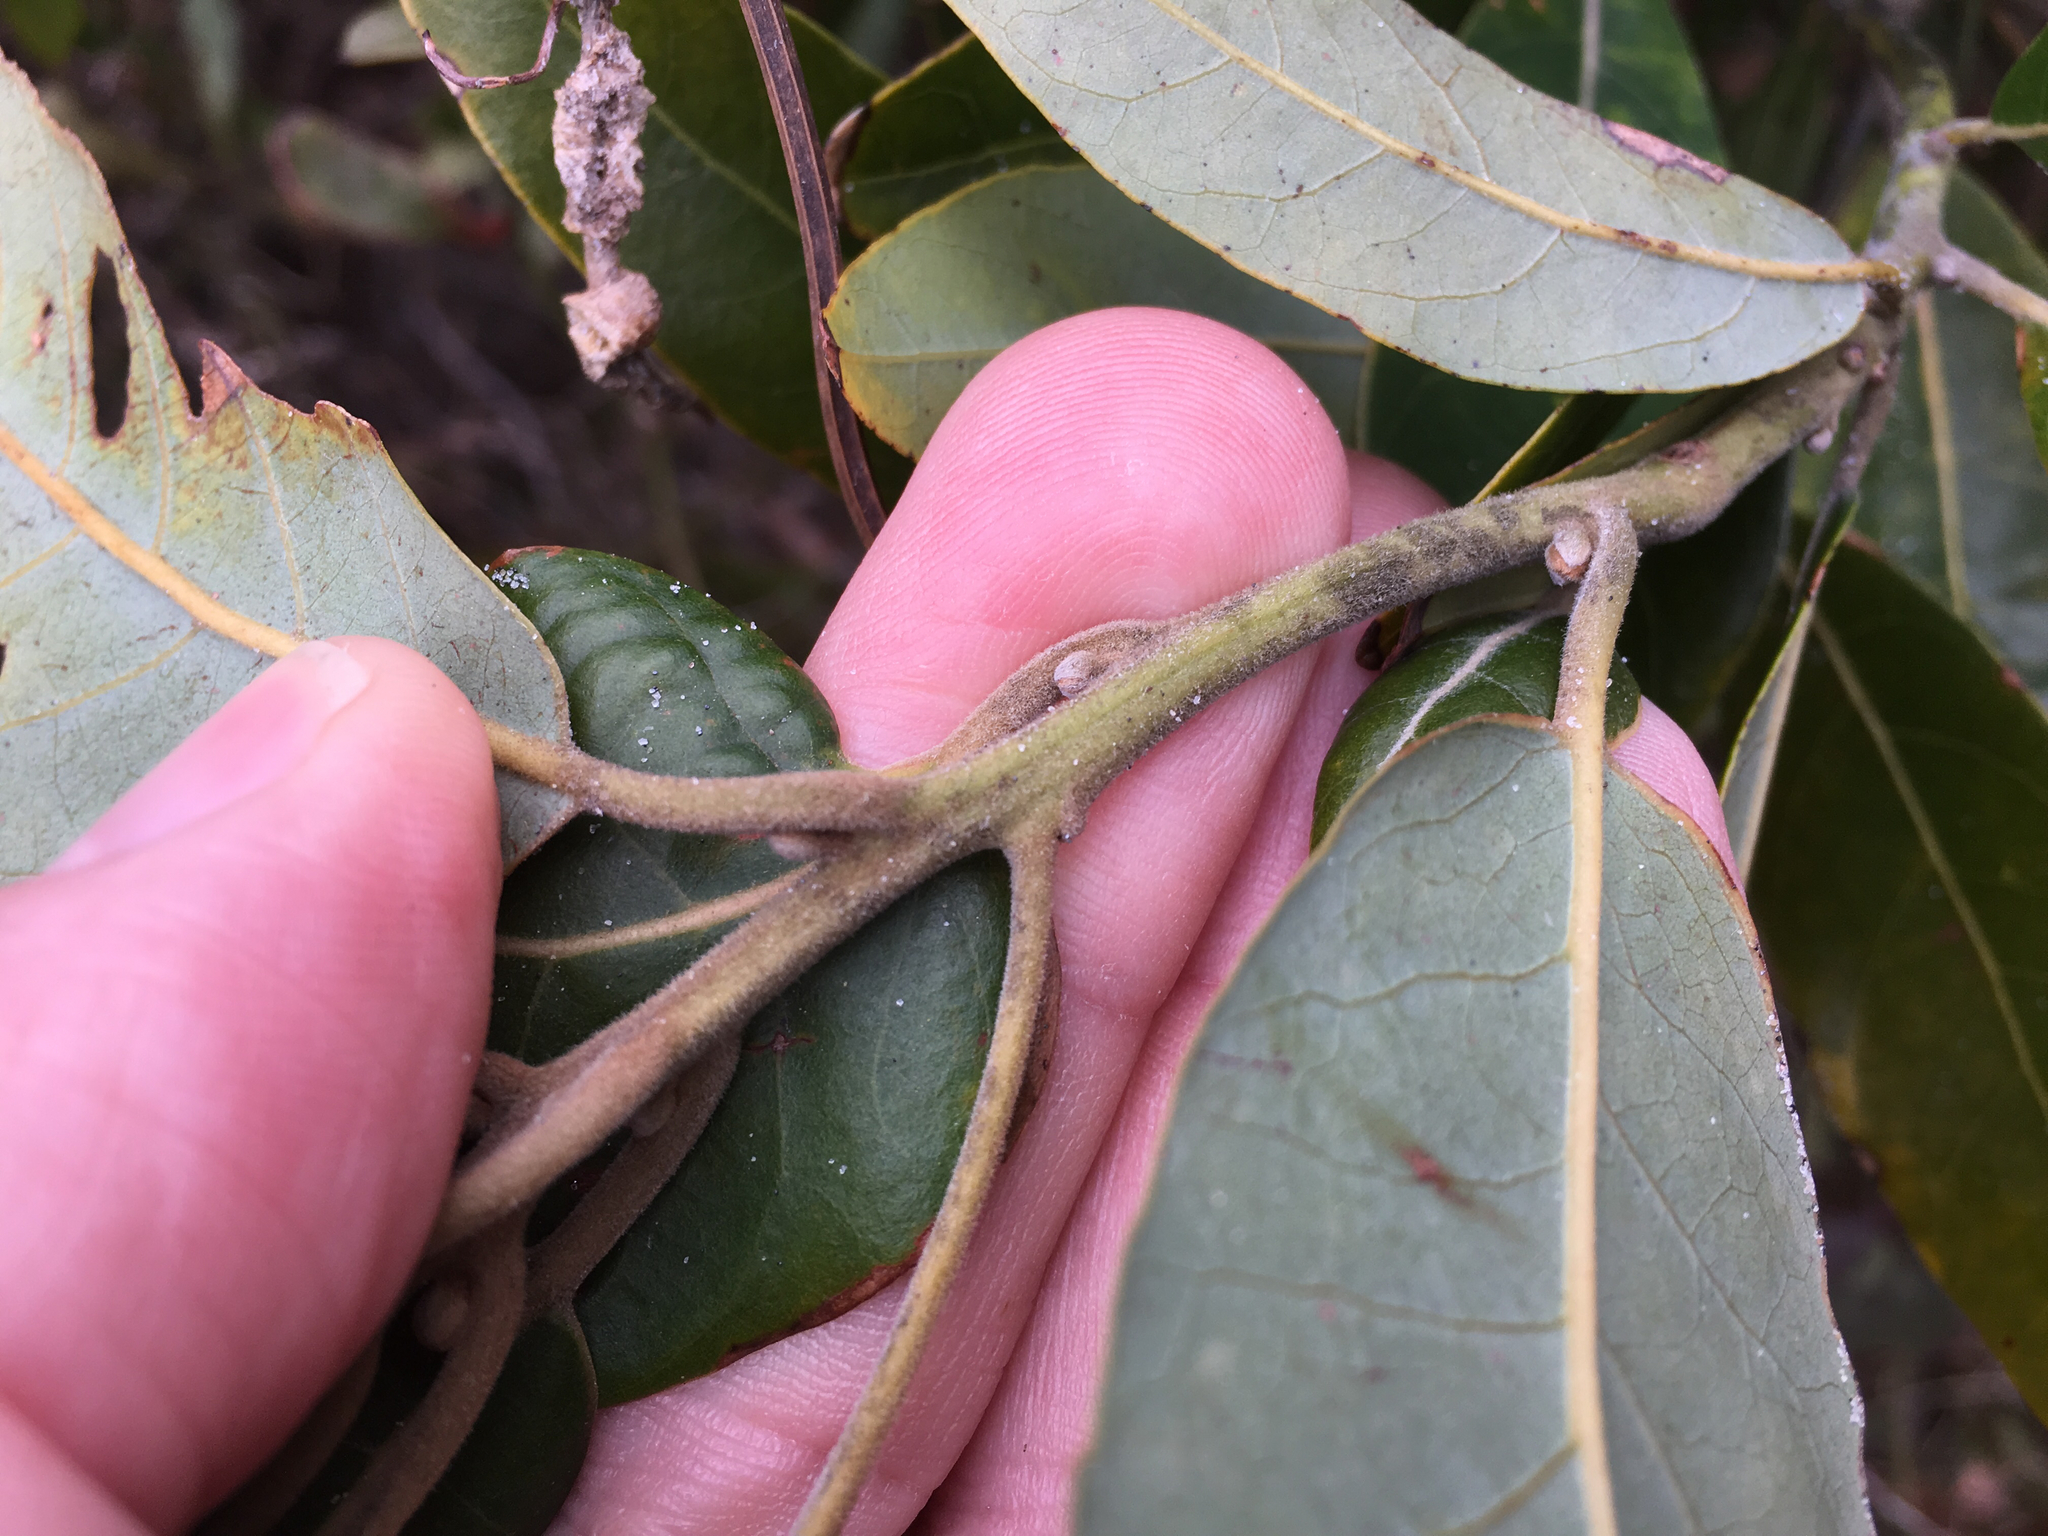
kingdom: Plantae
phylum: Tracheophyta
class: Magnoliopsida
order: Laurales
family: Lauraceae
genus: Persea
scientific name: Persea palustris
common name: Swampbay
